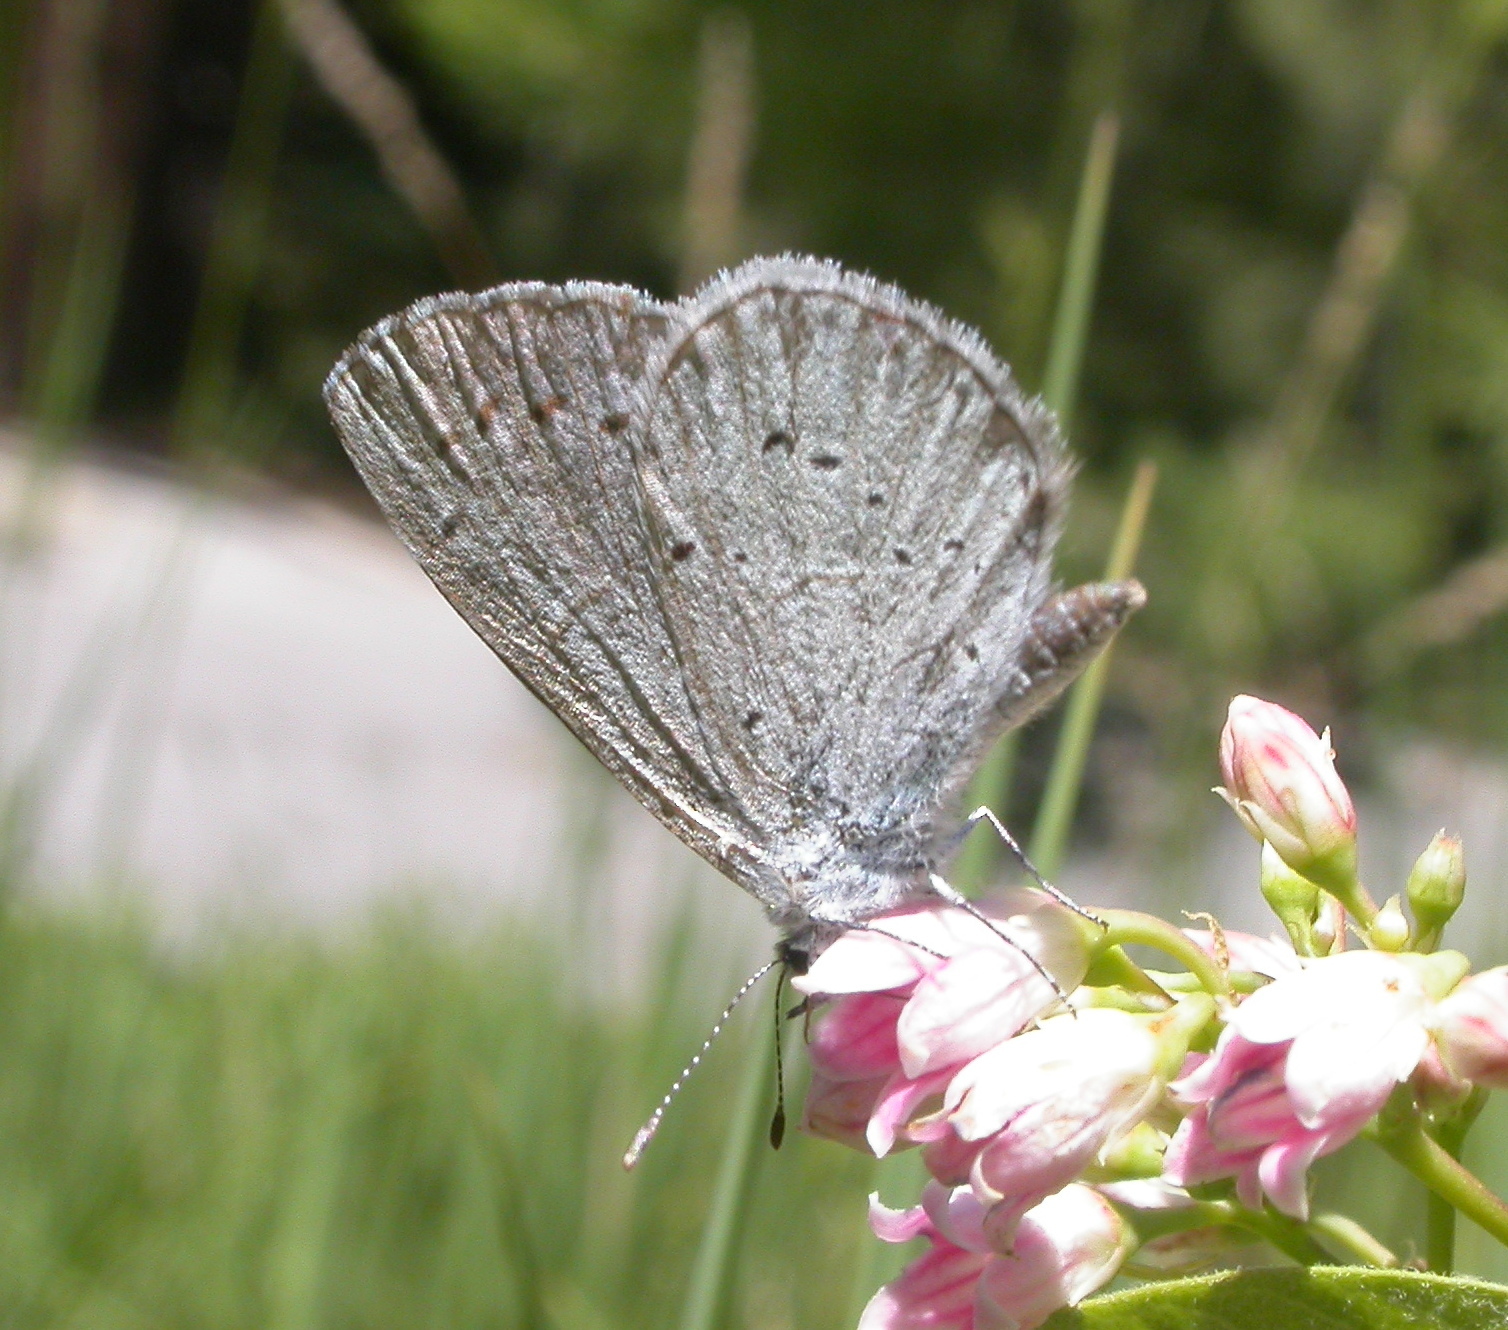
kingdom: Animalia
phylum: Arthropoda
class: Insecta
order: Lepidoptera
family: Lycaenidae
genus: Celastrina
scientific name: Celastrina ladon
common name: Spring azure
